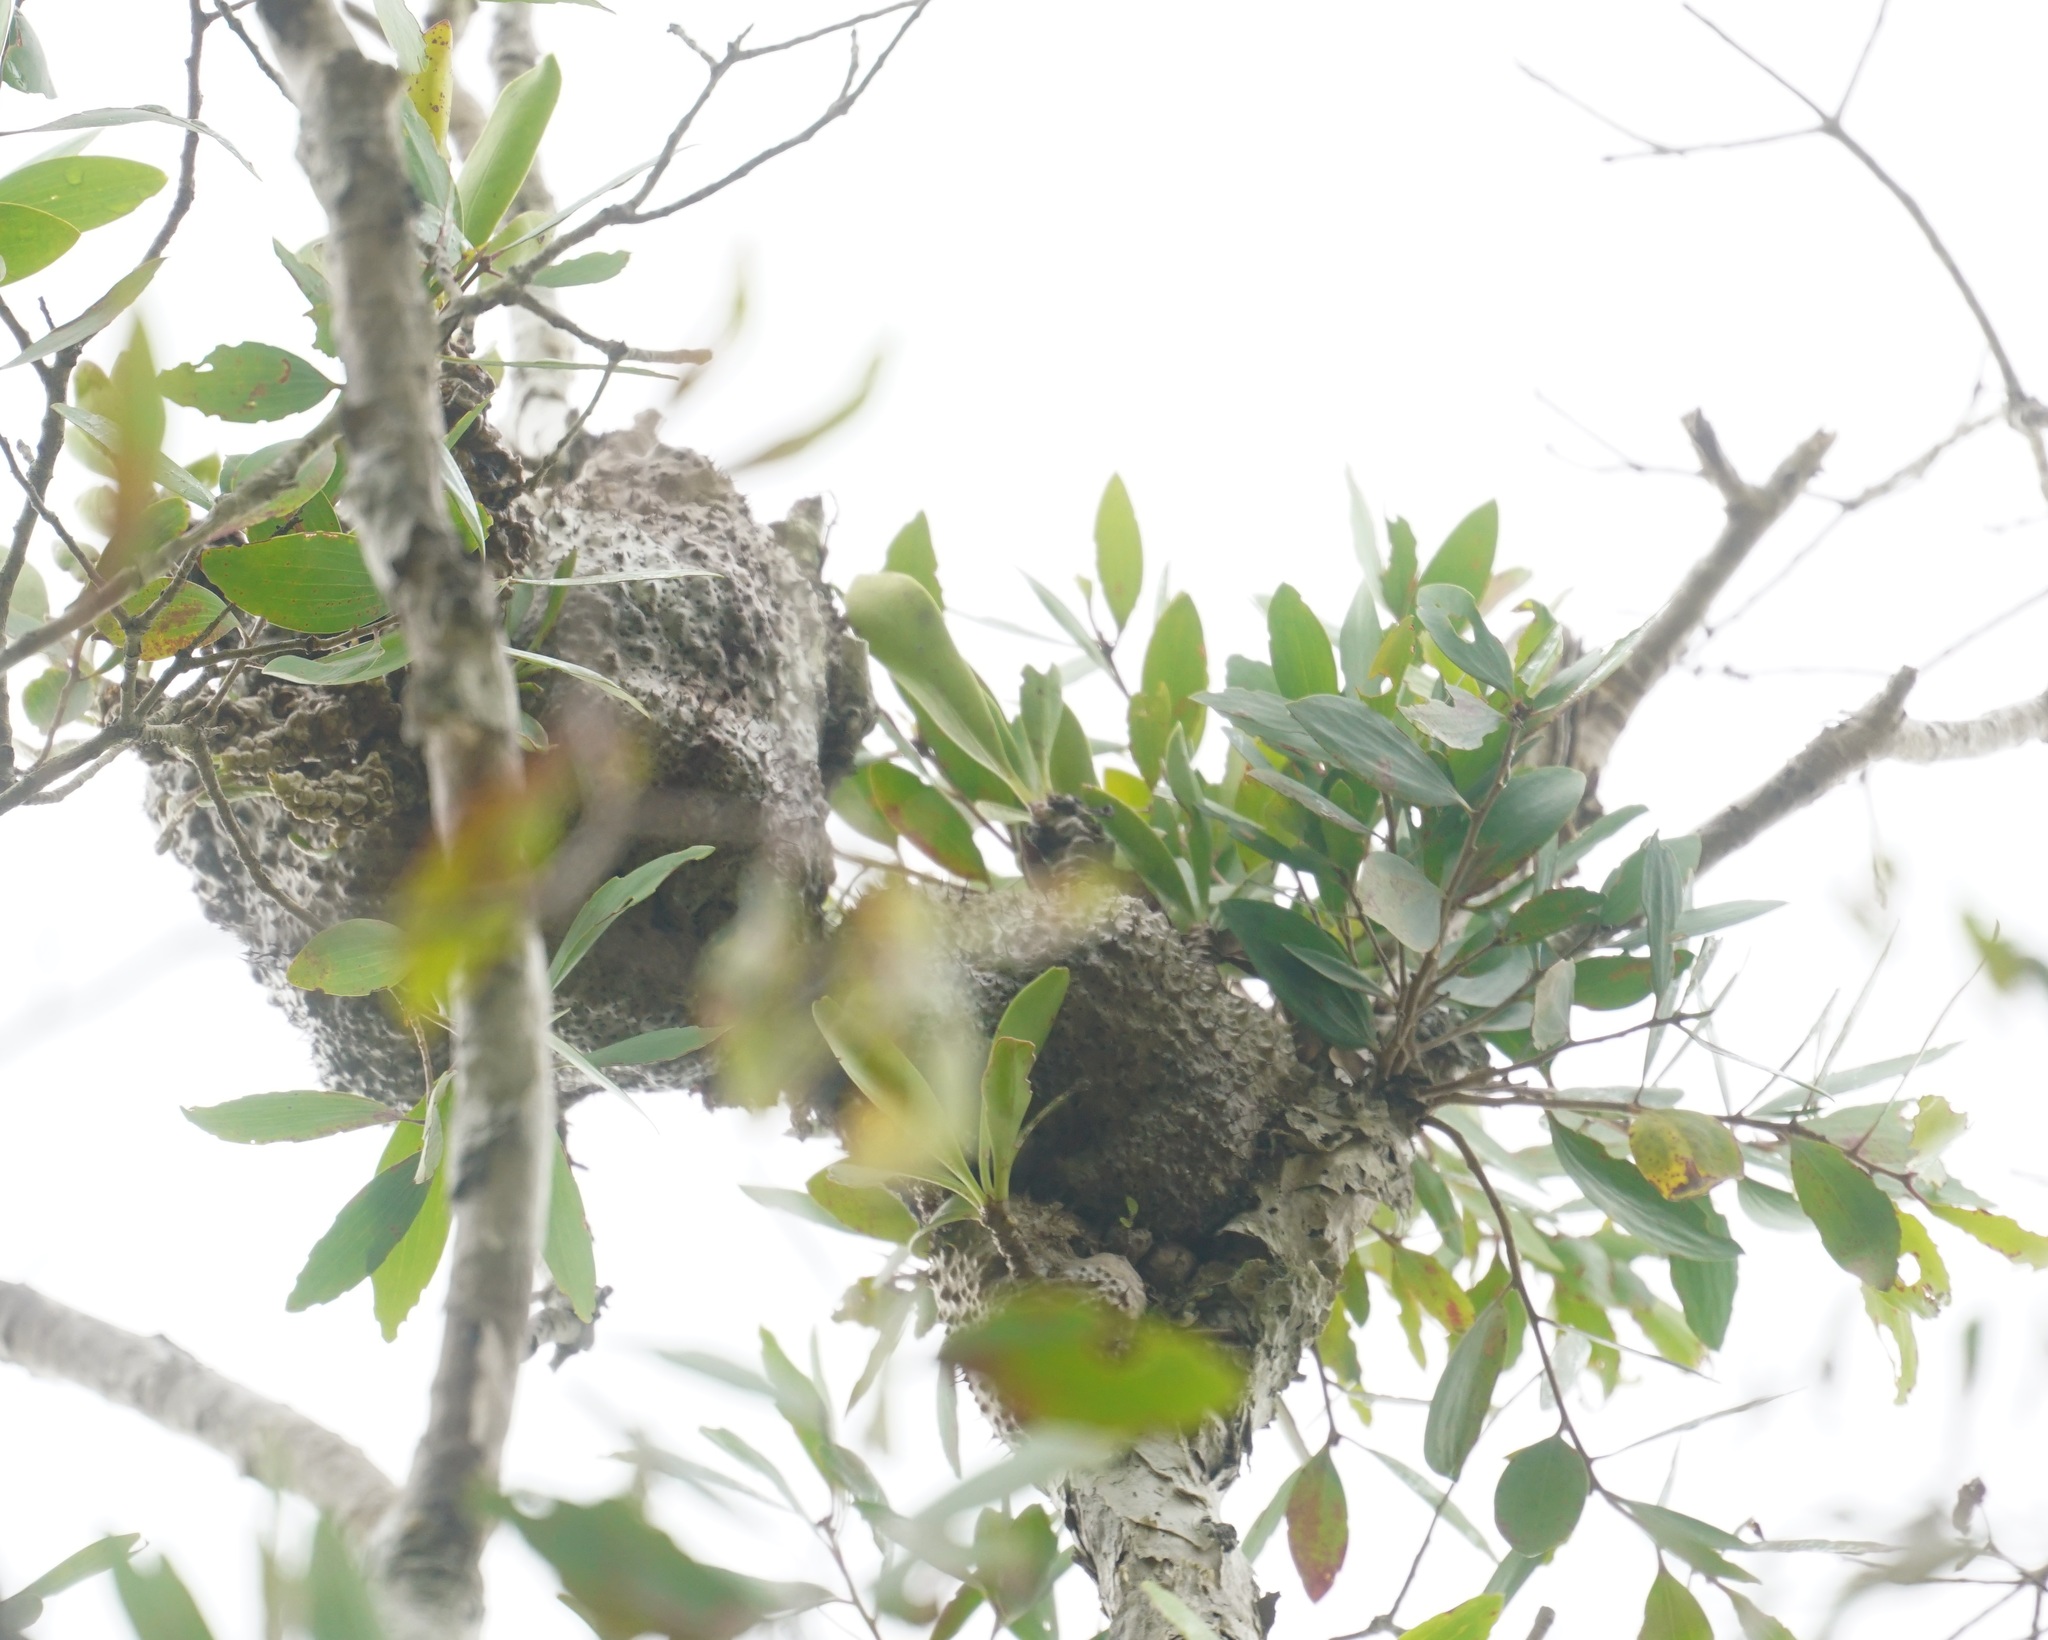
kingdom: Plantae
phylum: Tracheophyta
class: Magnoliopsida
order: Gentianales
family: Rubiaceae
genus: Myrmecodia
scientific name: Myrmecodia beccarii
